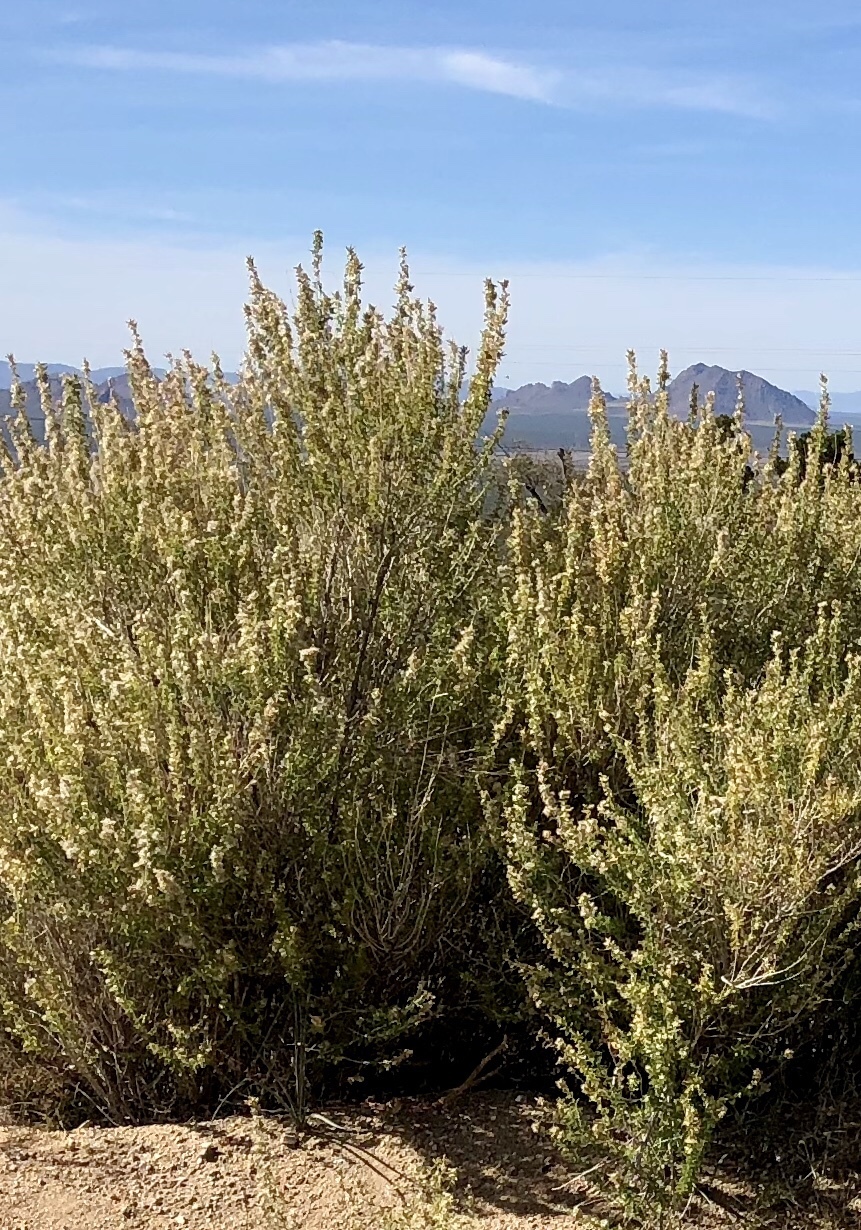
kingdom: Plantae
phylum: Tracheophyta
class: Magnoliopsida
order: Asterales
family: Asteraceae
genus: Brickellia
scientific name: Brickellia laciniata
